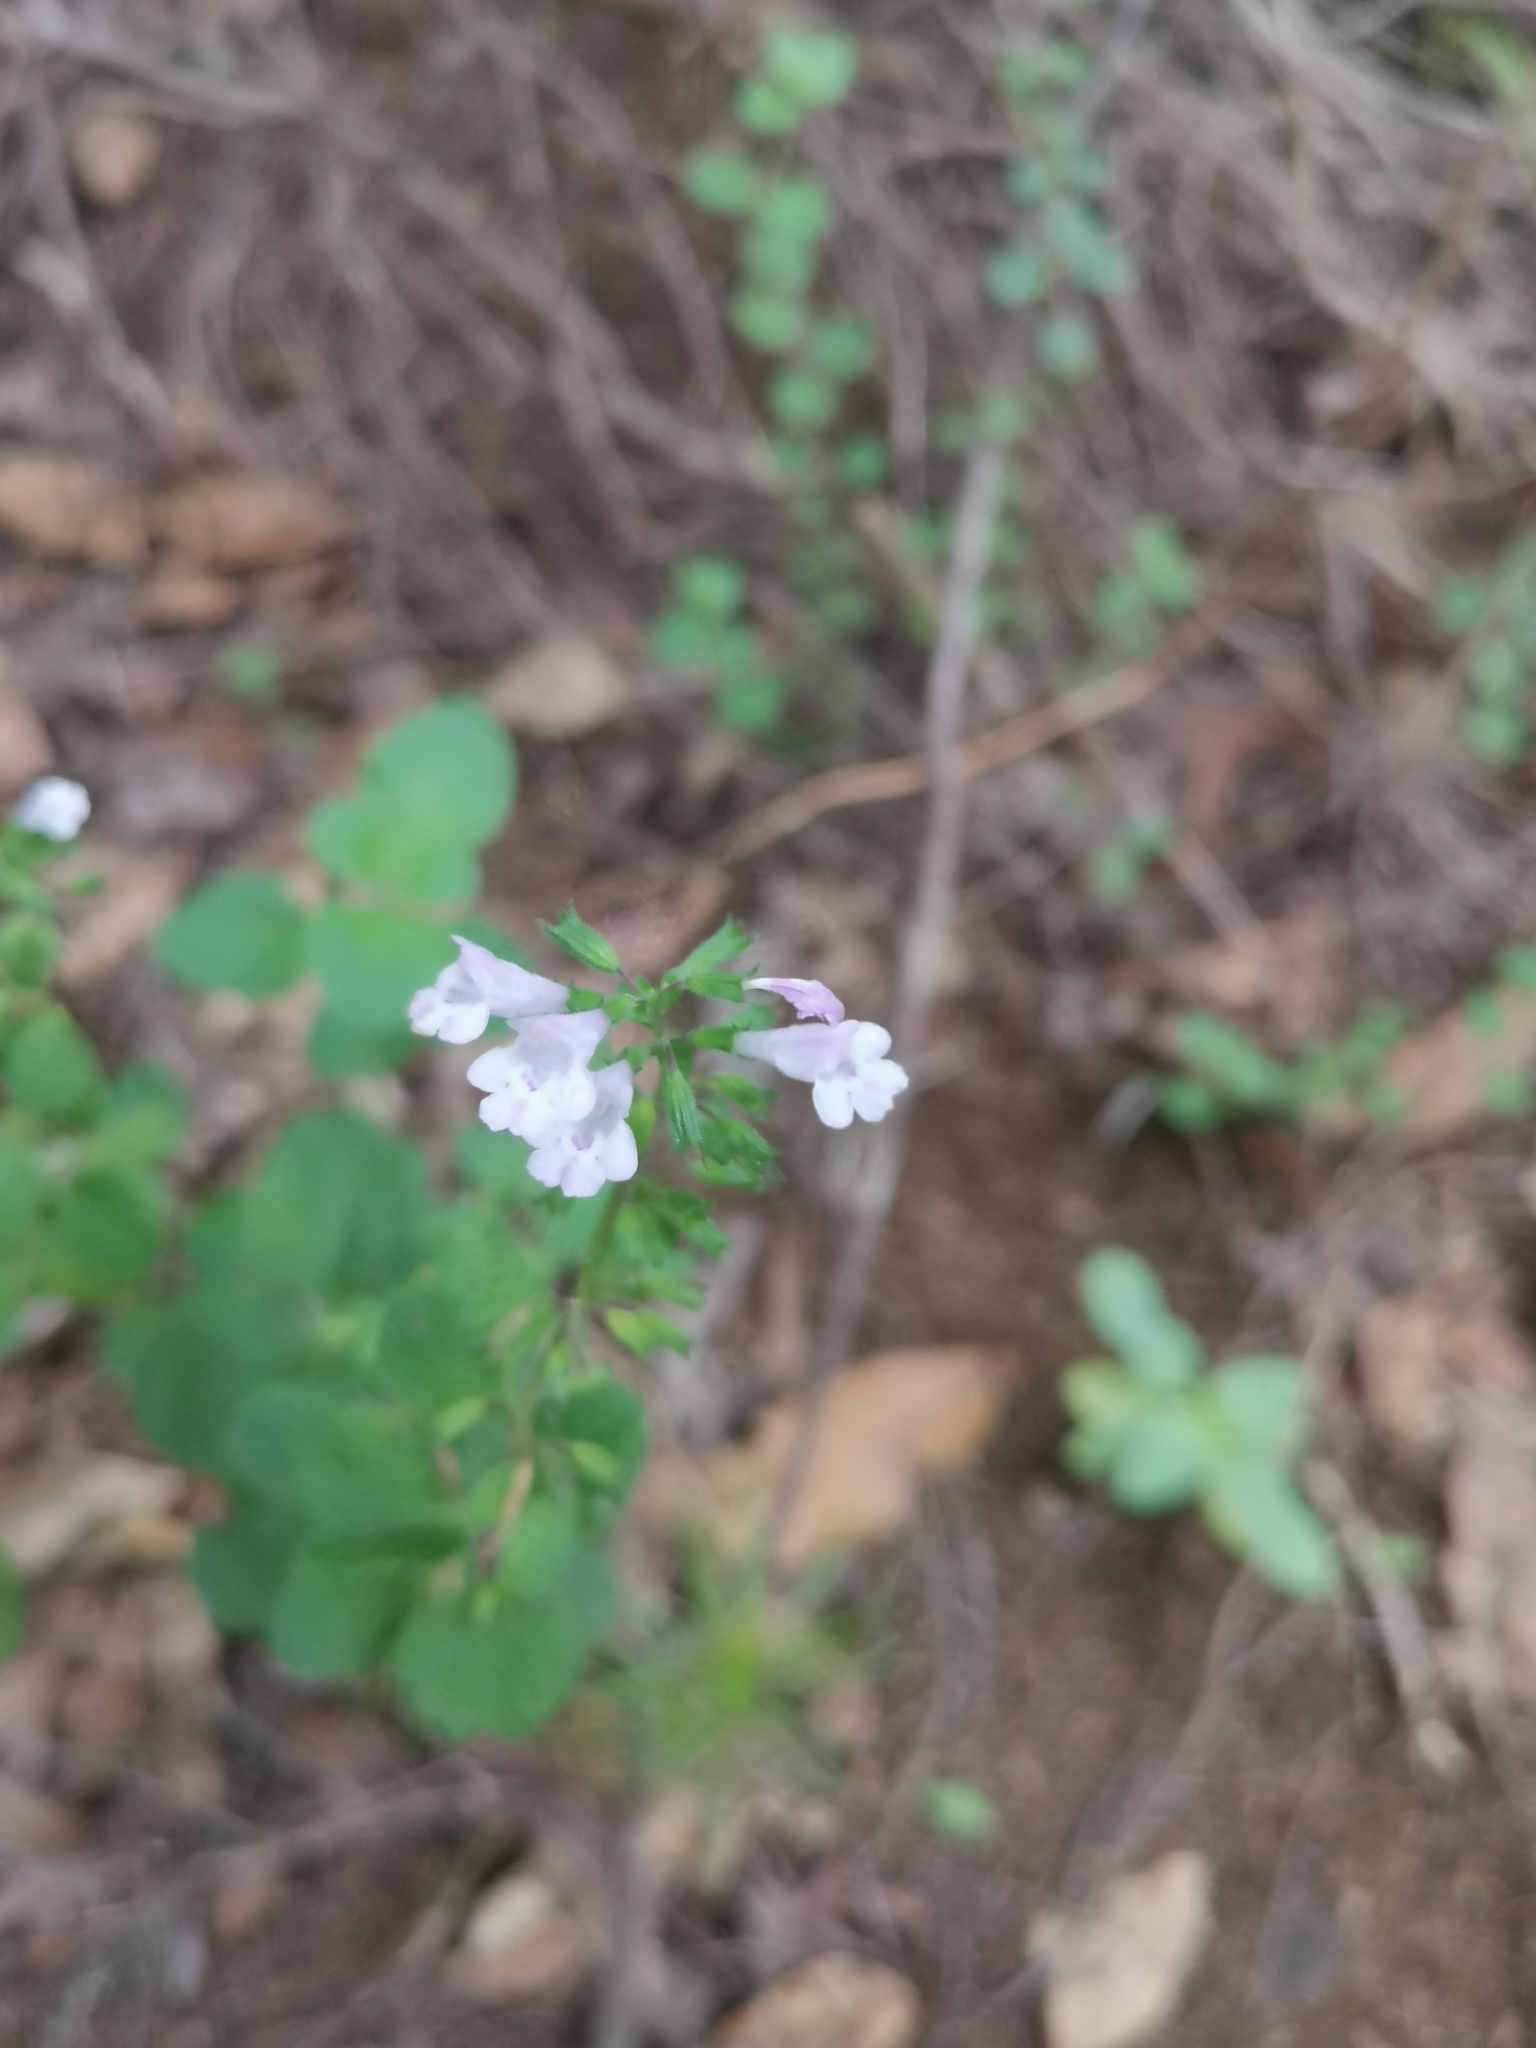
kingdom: Plantae
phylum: Tracheophyta
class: Magnoliopsida
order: Lamiales
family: Lamiaceae
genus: Clinopodium
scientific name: Clinopodium menthifolium
